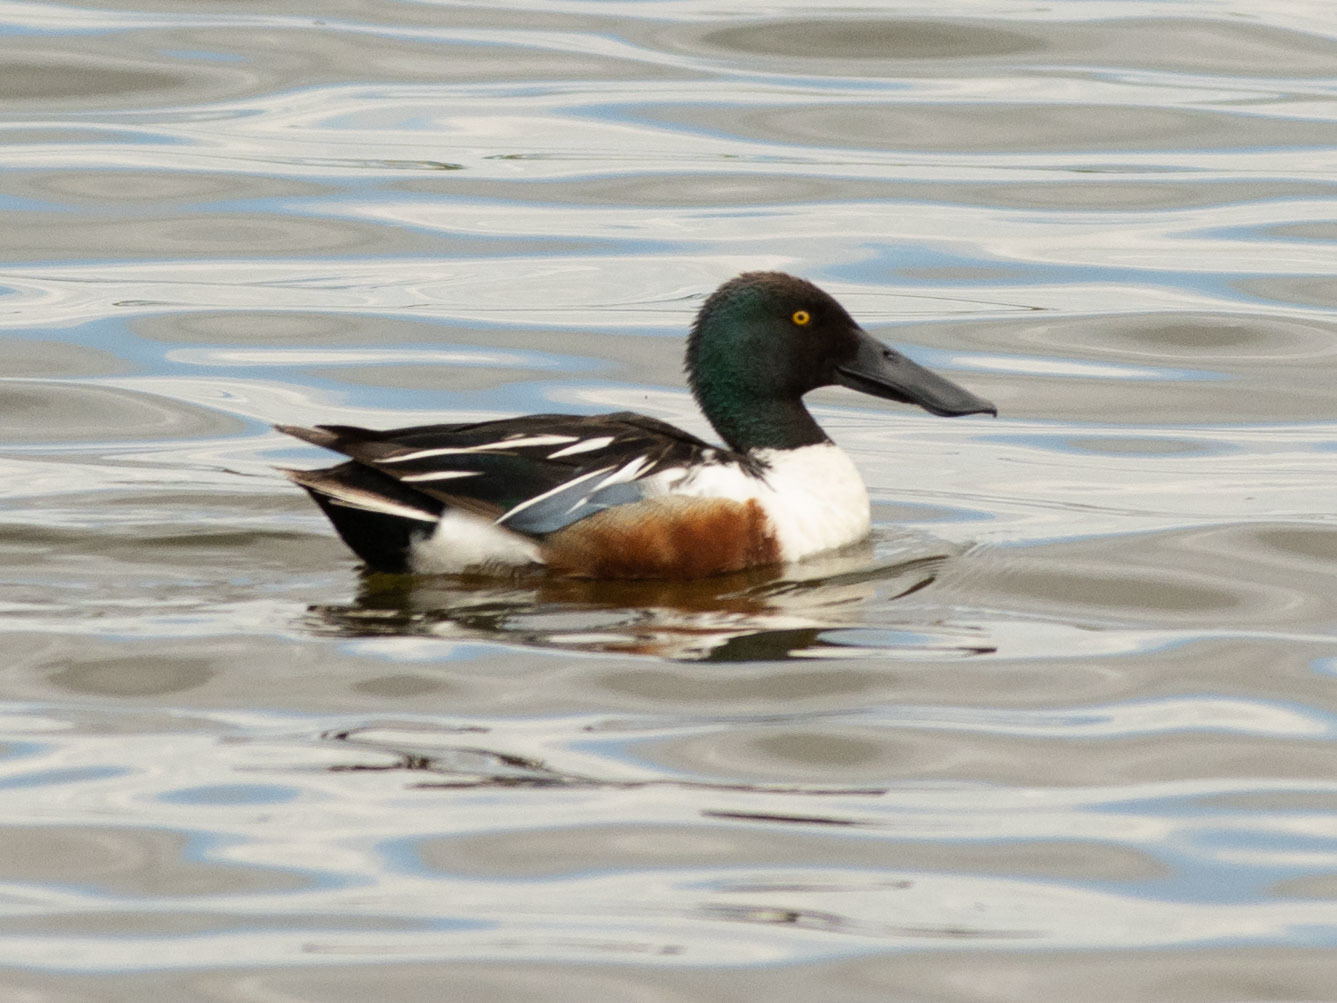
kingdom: Animalia
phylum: Chordata
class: Aves
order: Anseriformes
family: Anatidae
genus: Spatula
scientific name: Spatula clypeata
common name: Northern shoveler
